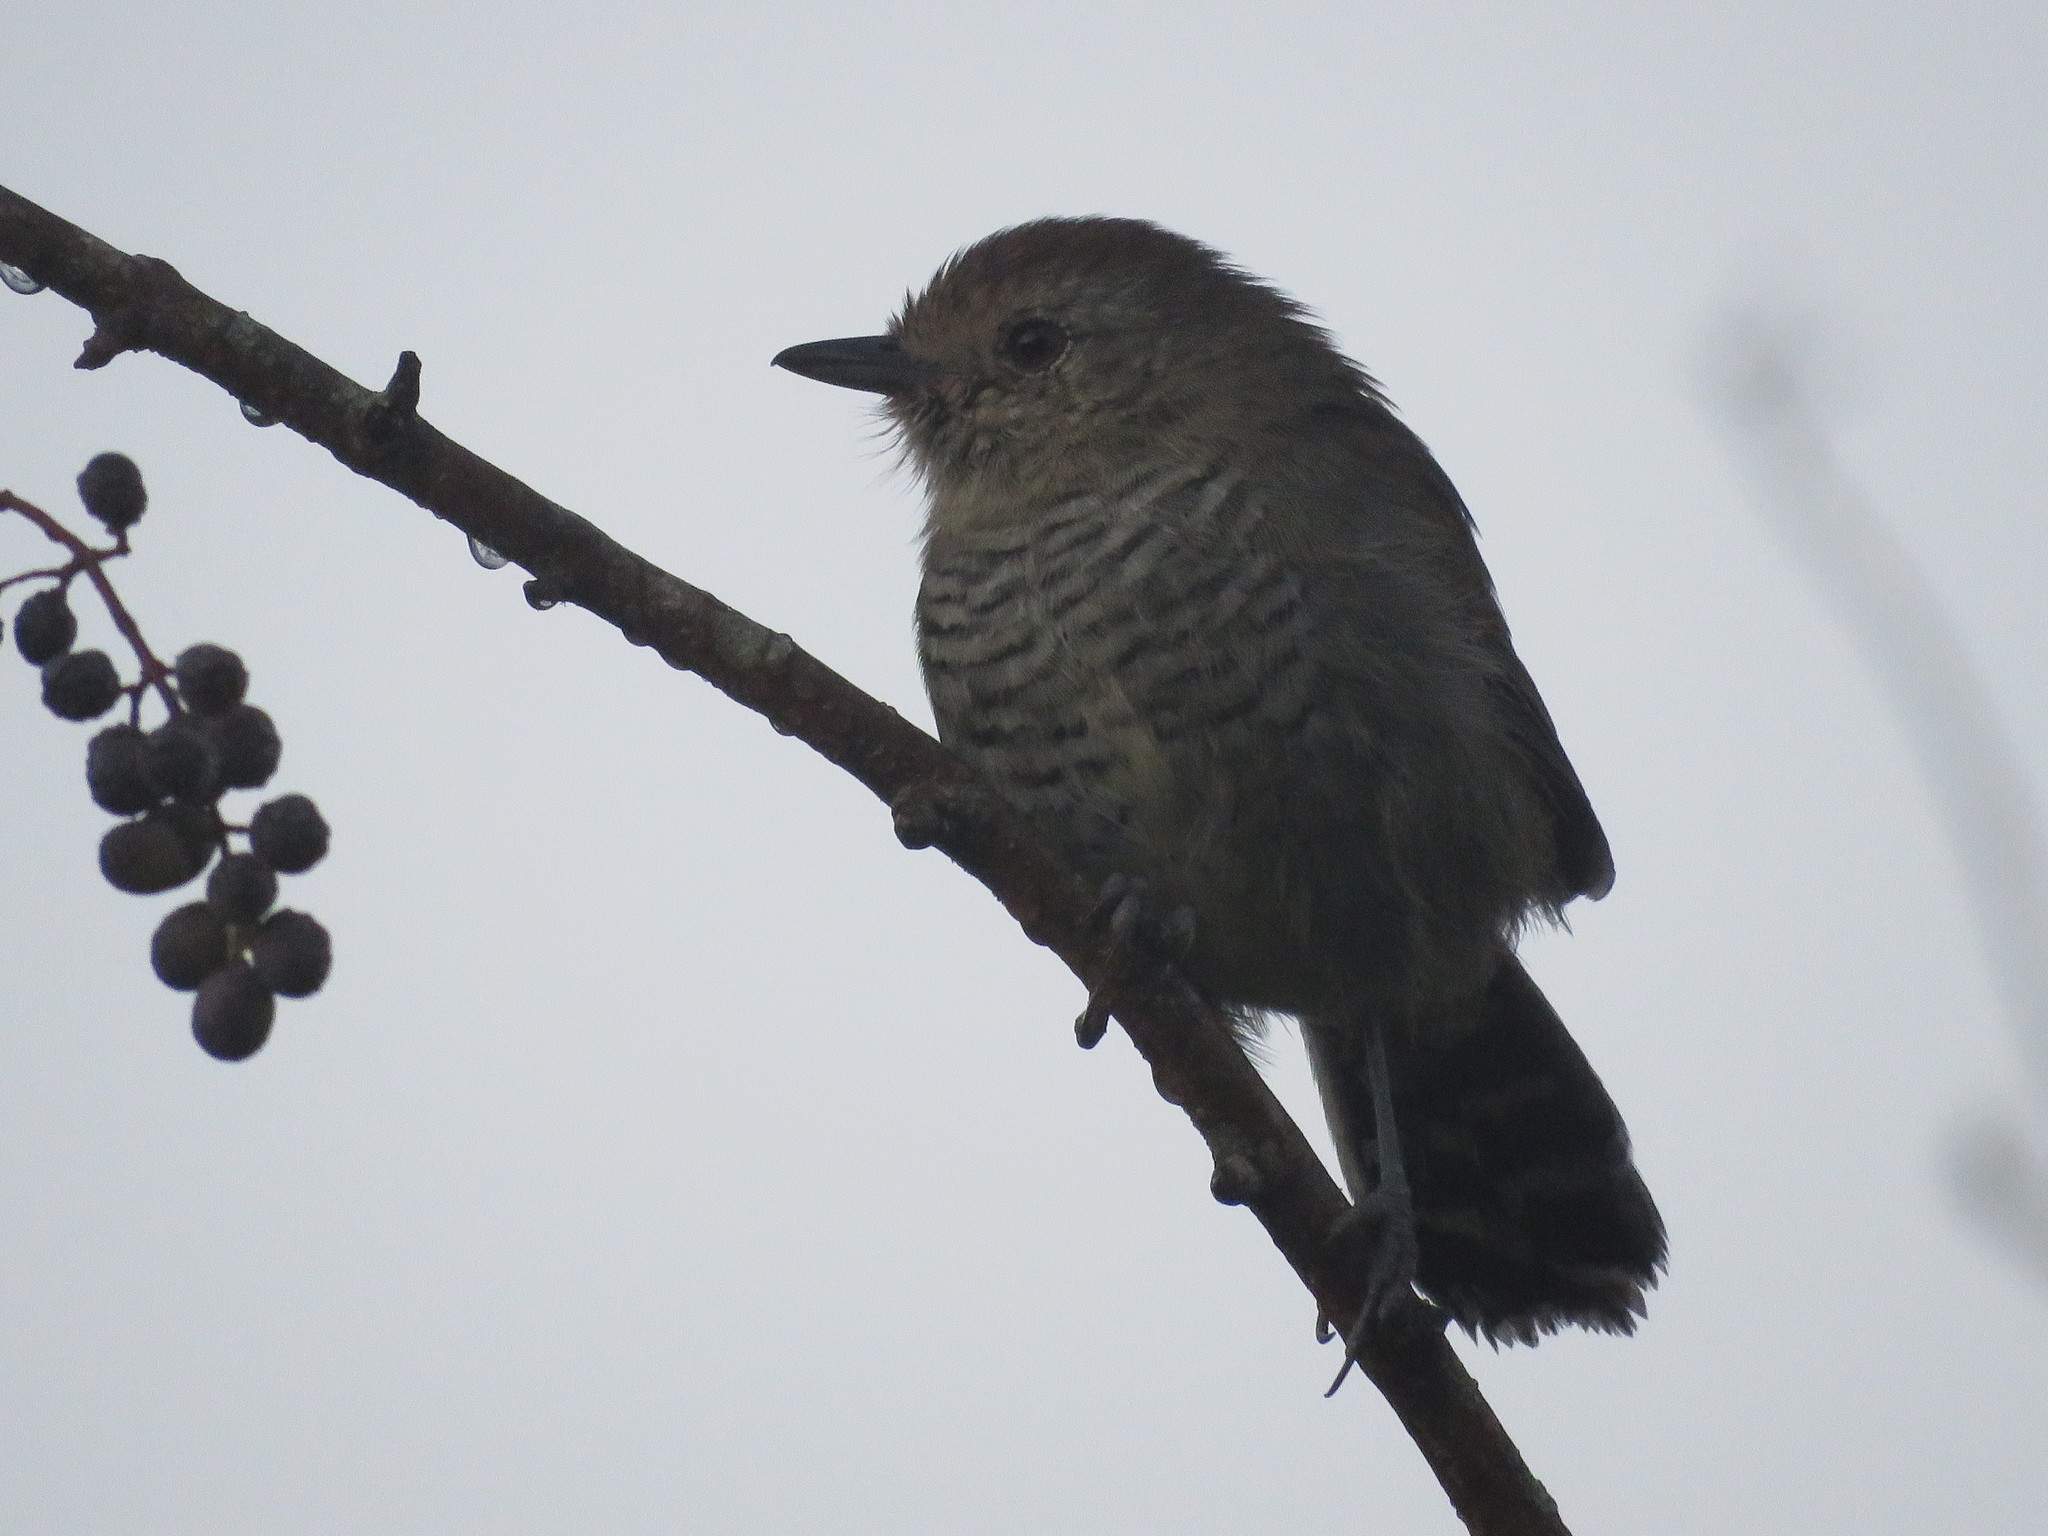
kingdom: Animalia
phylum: Chordata
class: Aves
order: Passeriformes
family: Thamnophilidae
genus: Thamnophilus
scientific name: Thamnophilus ruficapillus
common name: Rufous-capped antshrike
